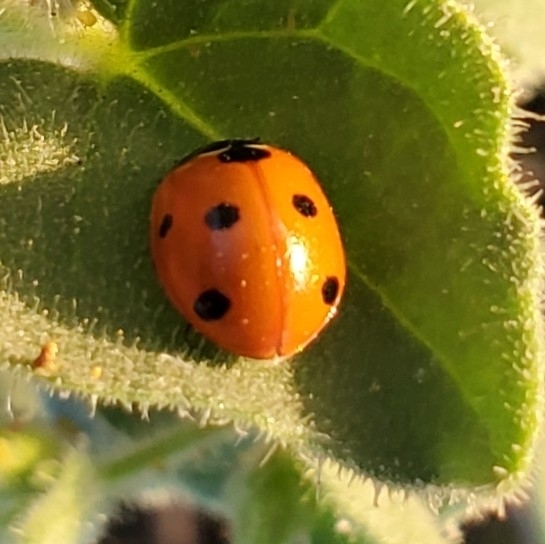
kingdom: Animalia
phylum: Arthropoda
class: Insecta
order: Coleoptera
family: Coccinellidae
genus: Coccinella
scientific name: Coccinella septempunctata
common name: Sevenspotted lady beetle
